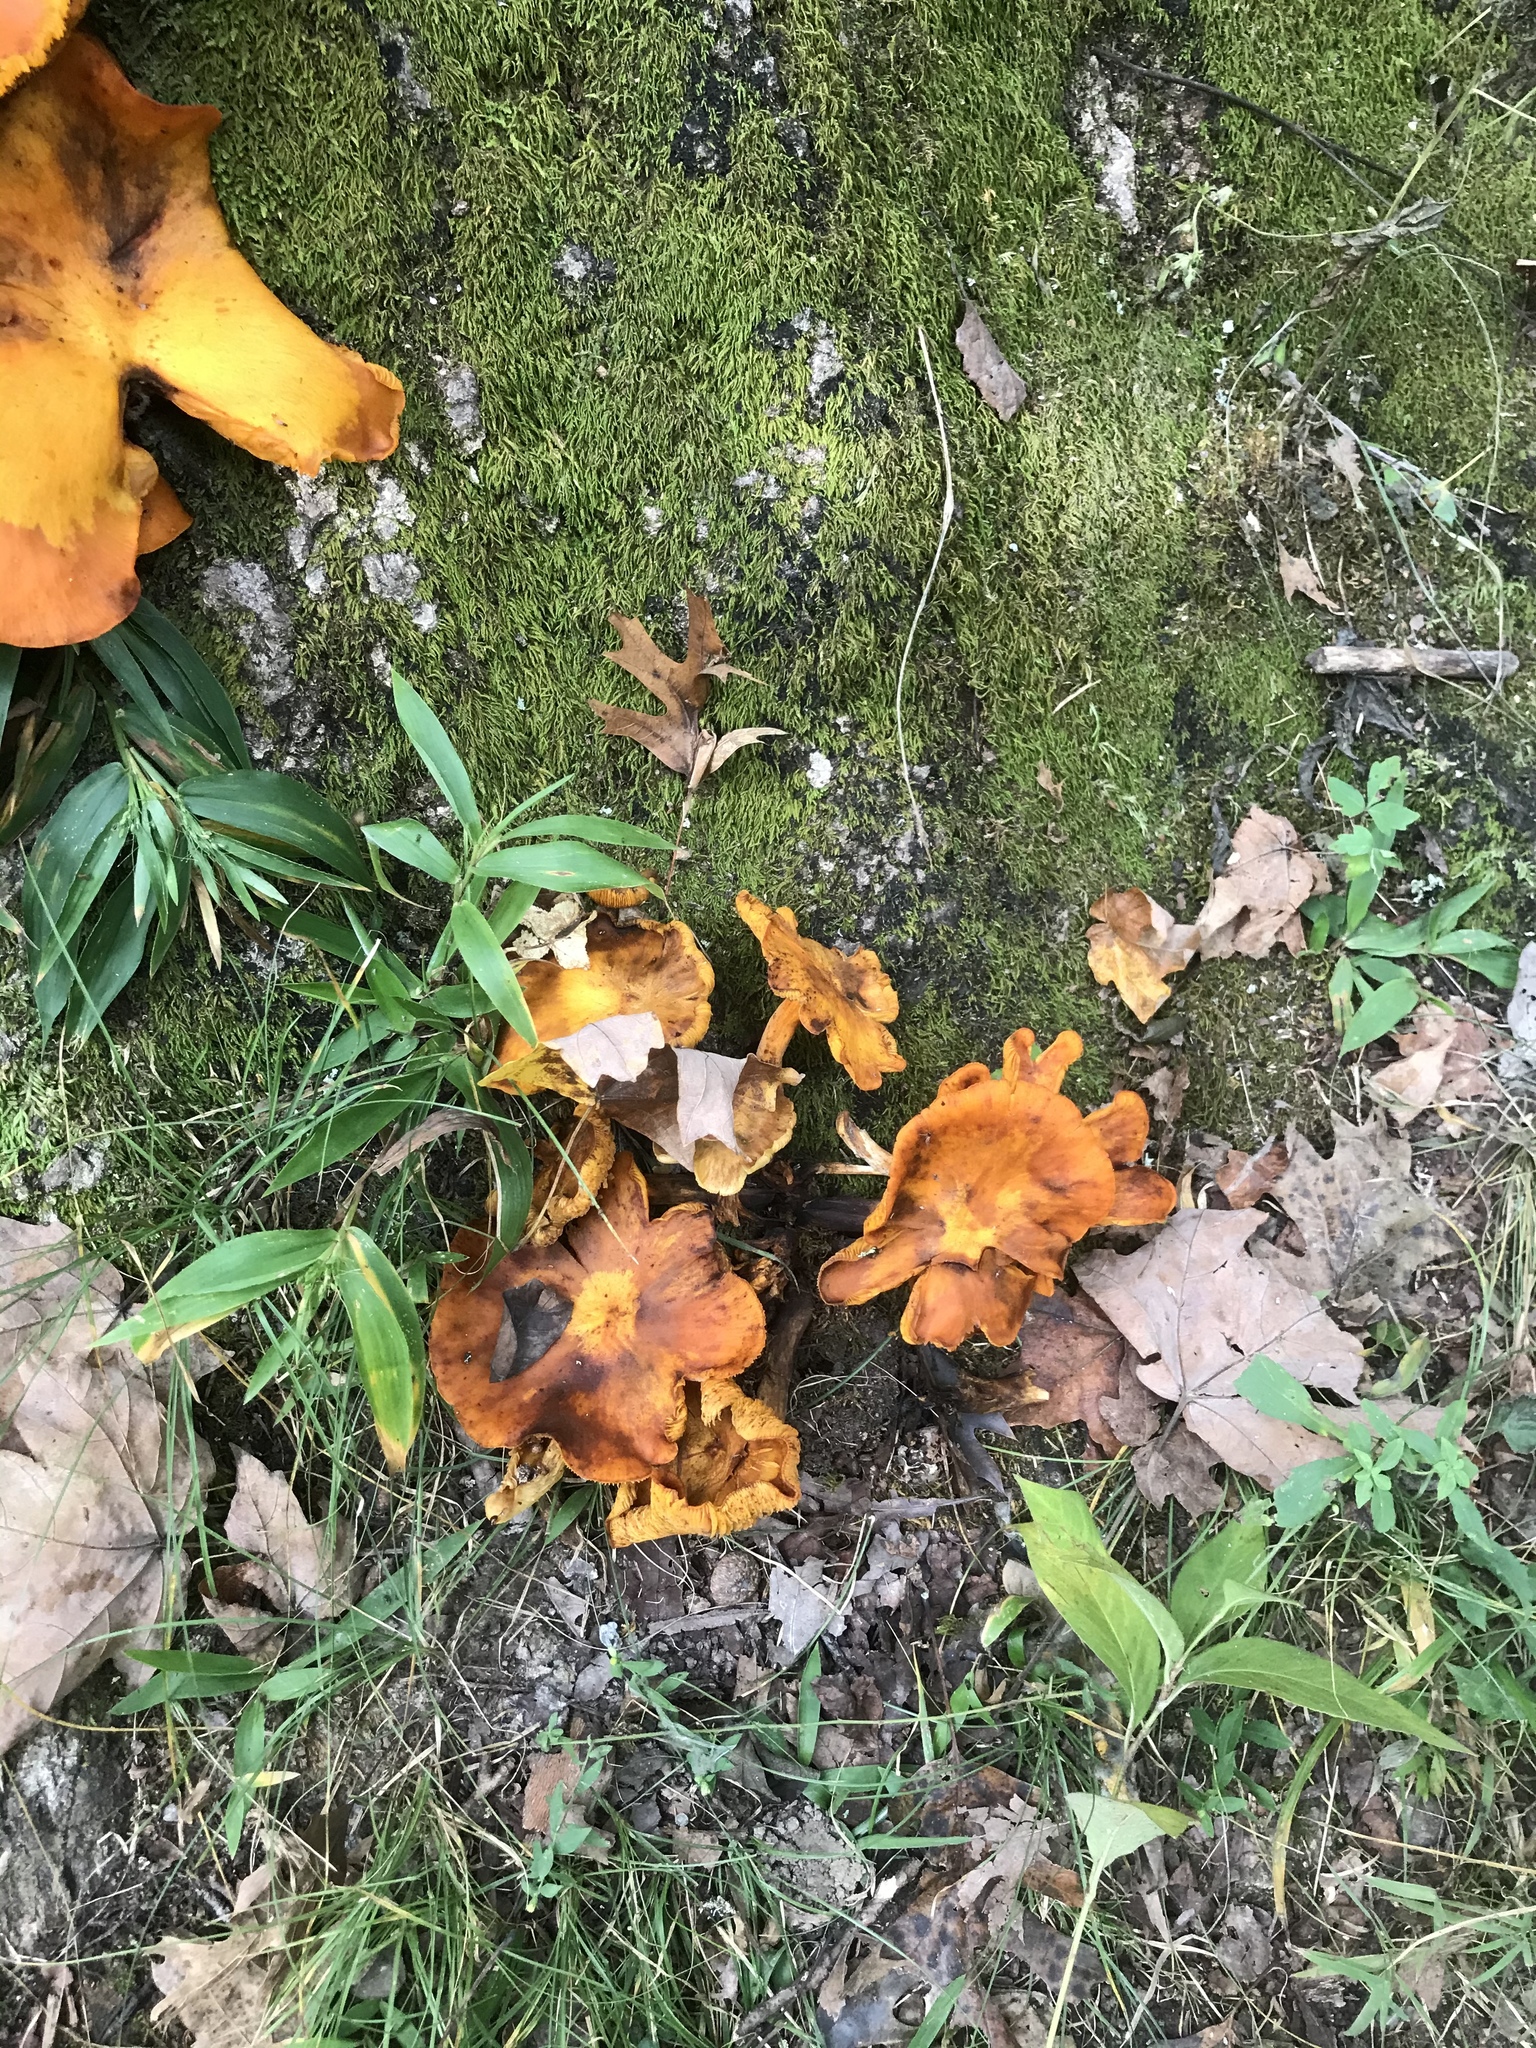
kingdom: Fungi
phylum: Basidiomycota
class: Agaricomycetes
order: Agaricales
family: Omphalotaceae
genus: Omphalotus
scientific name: Omphalotus illudens
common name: Jack o lantern
